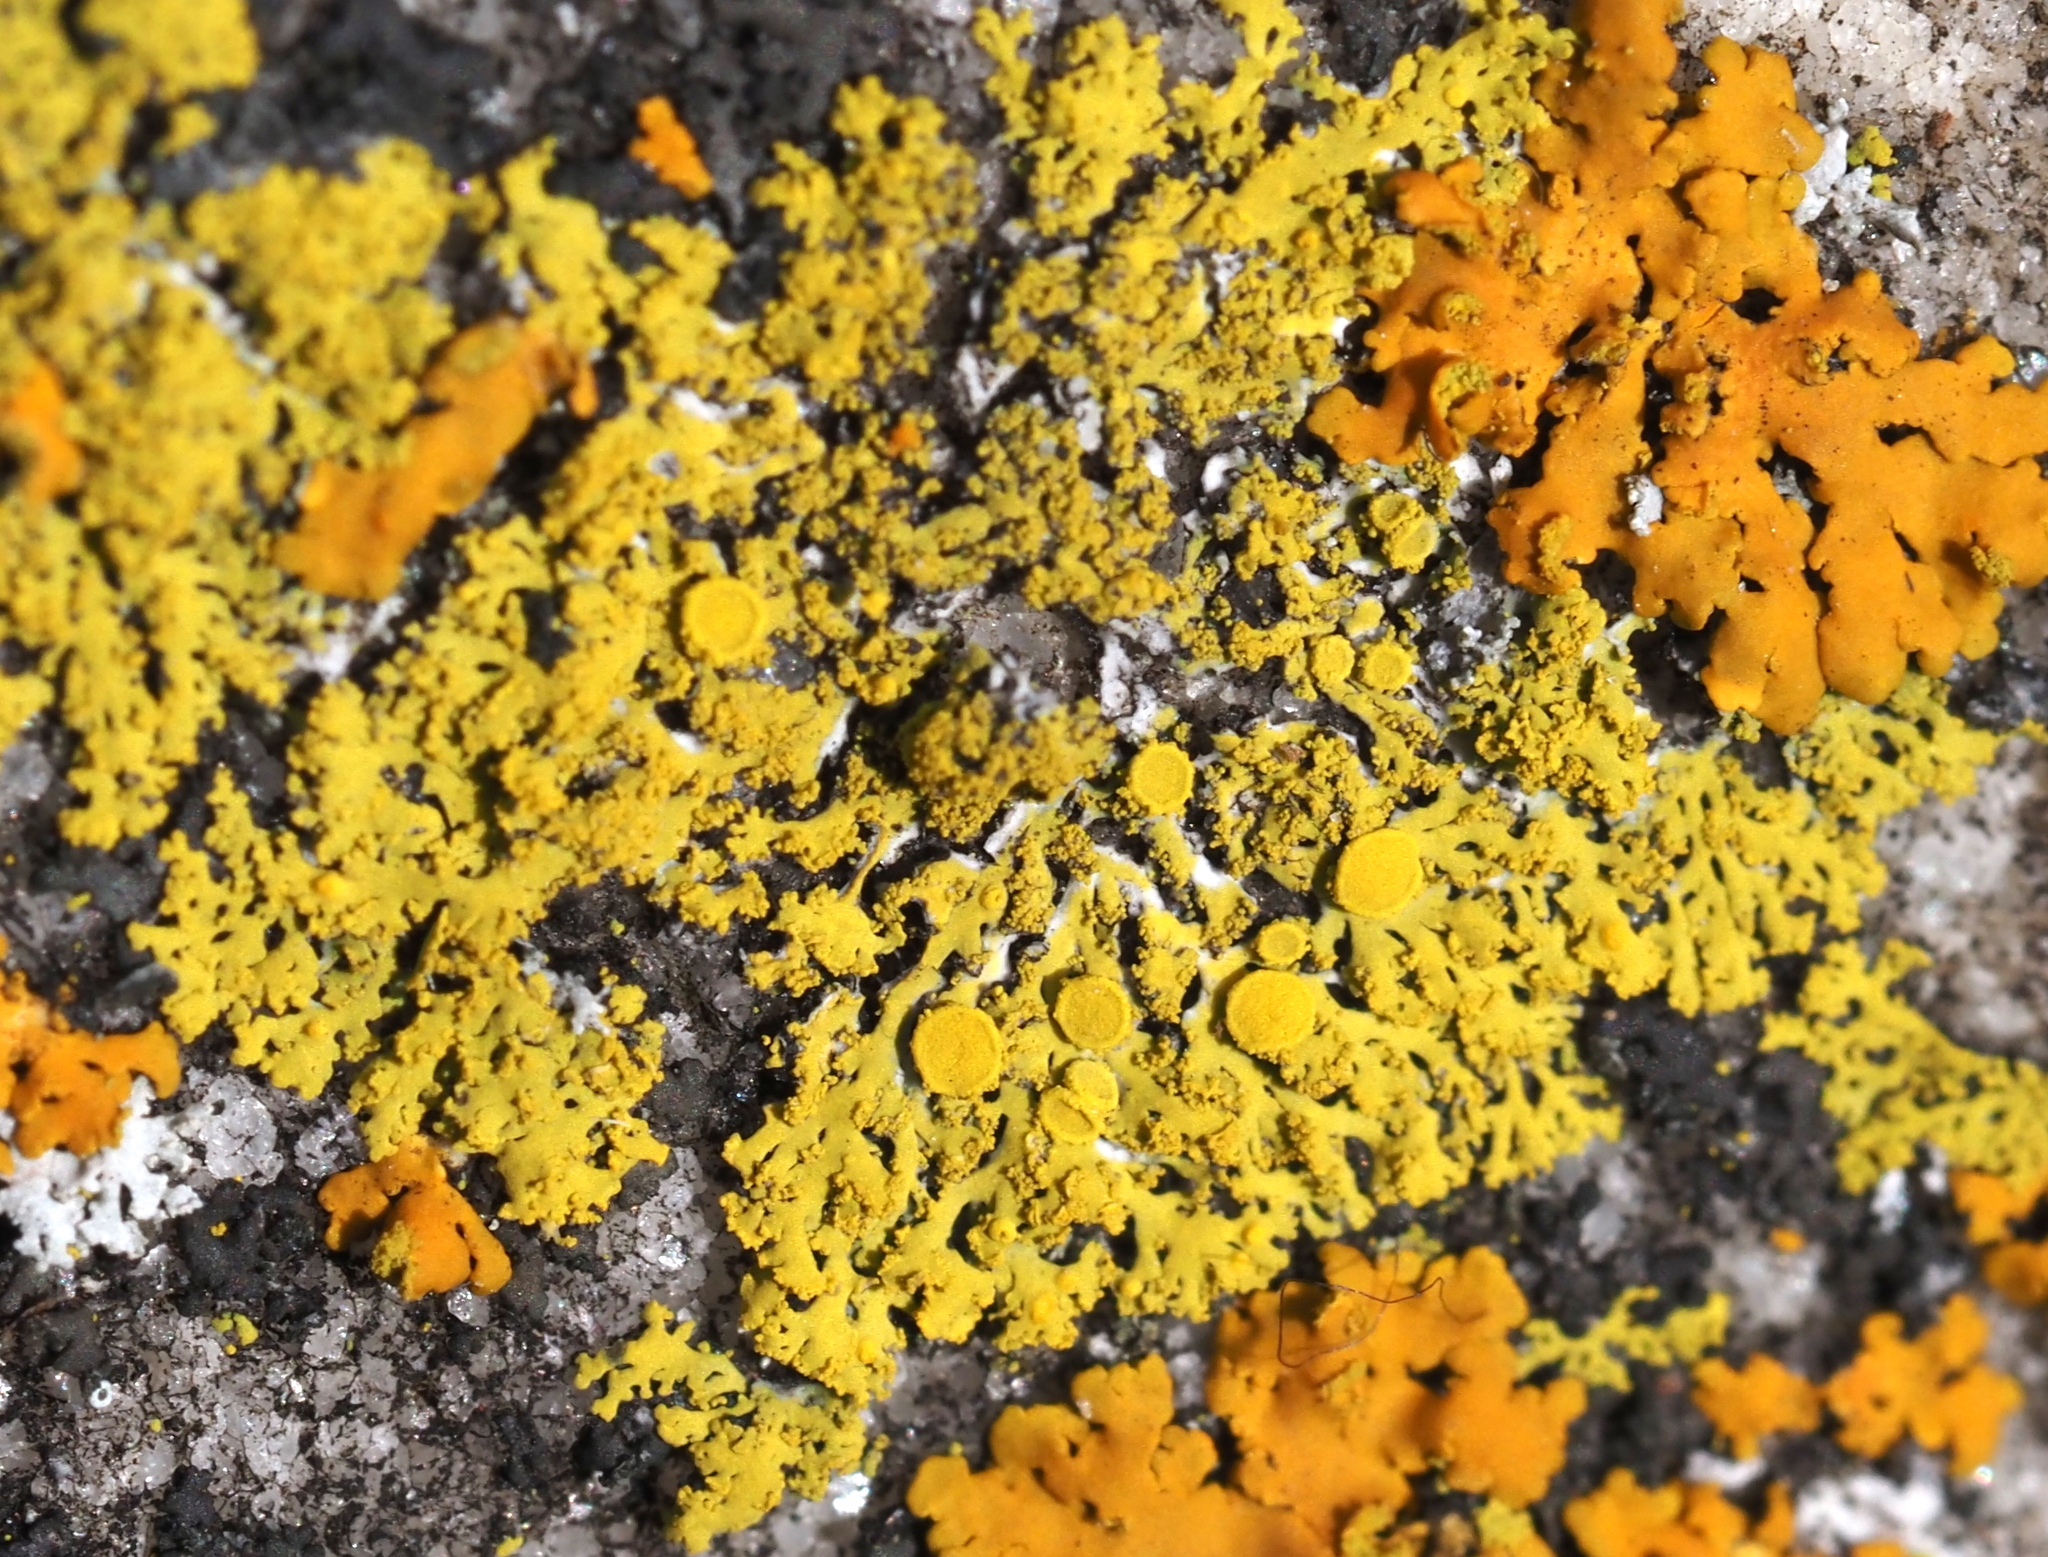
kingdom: Fungi
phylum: Ascomycota
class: Candelariomycetes
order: Candelariales
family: Candelariaceae
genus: Candelaria
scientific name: Candelaria concolor
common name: Candleflame lichen
